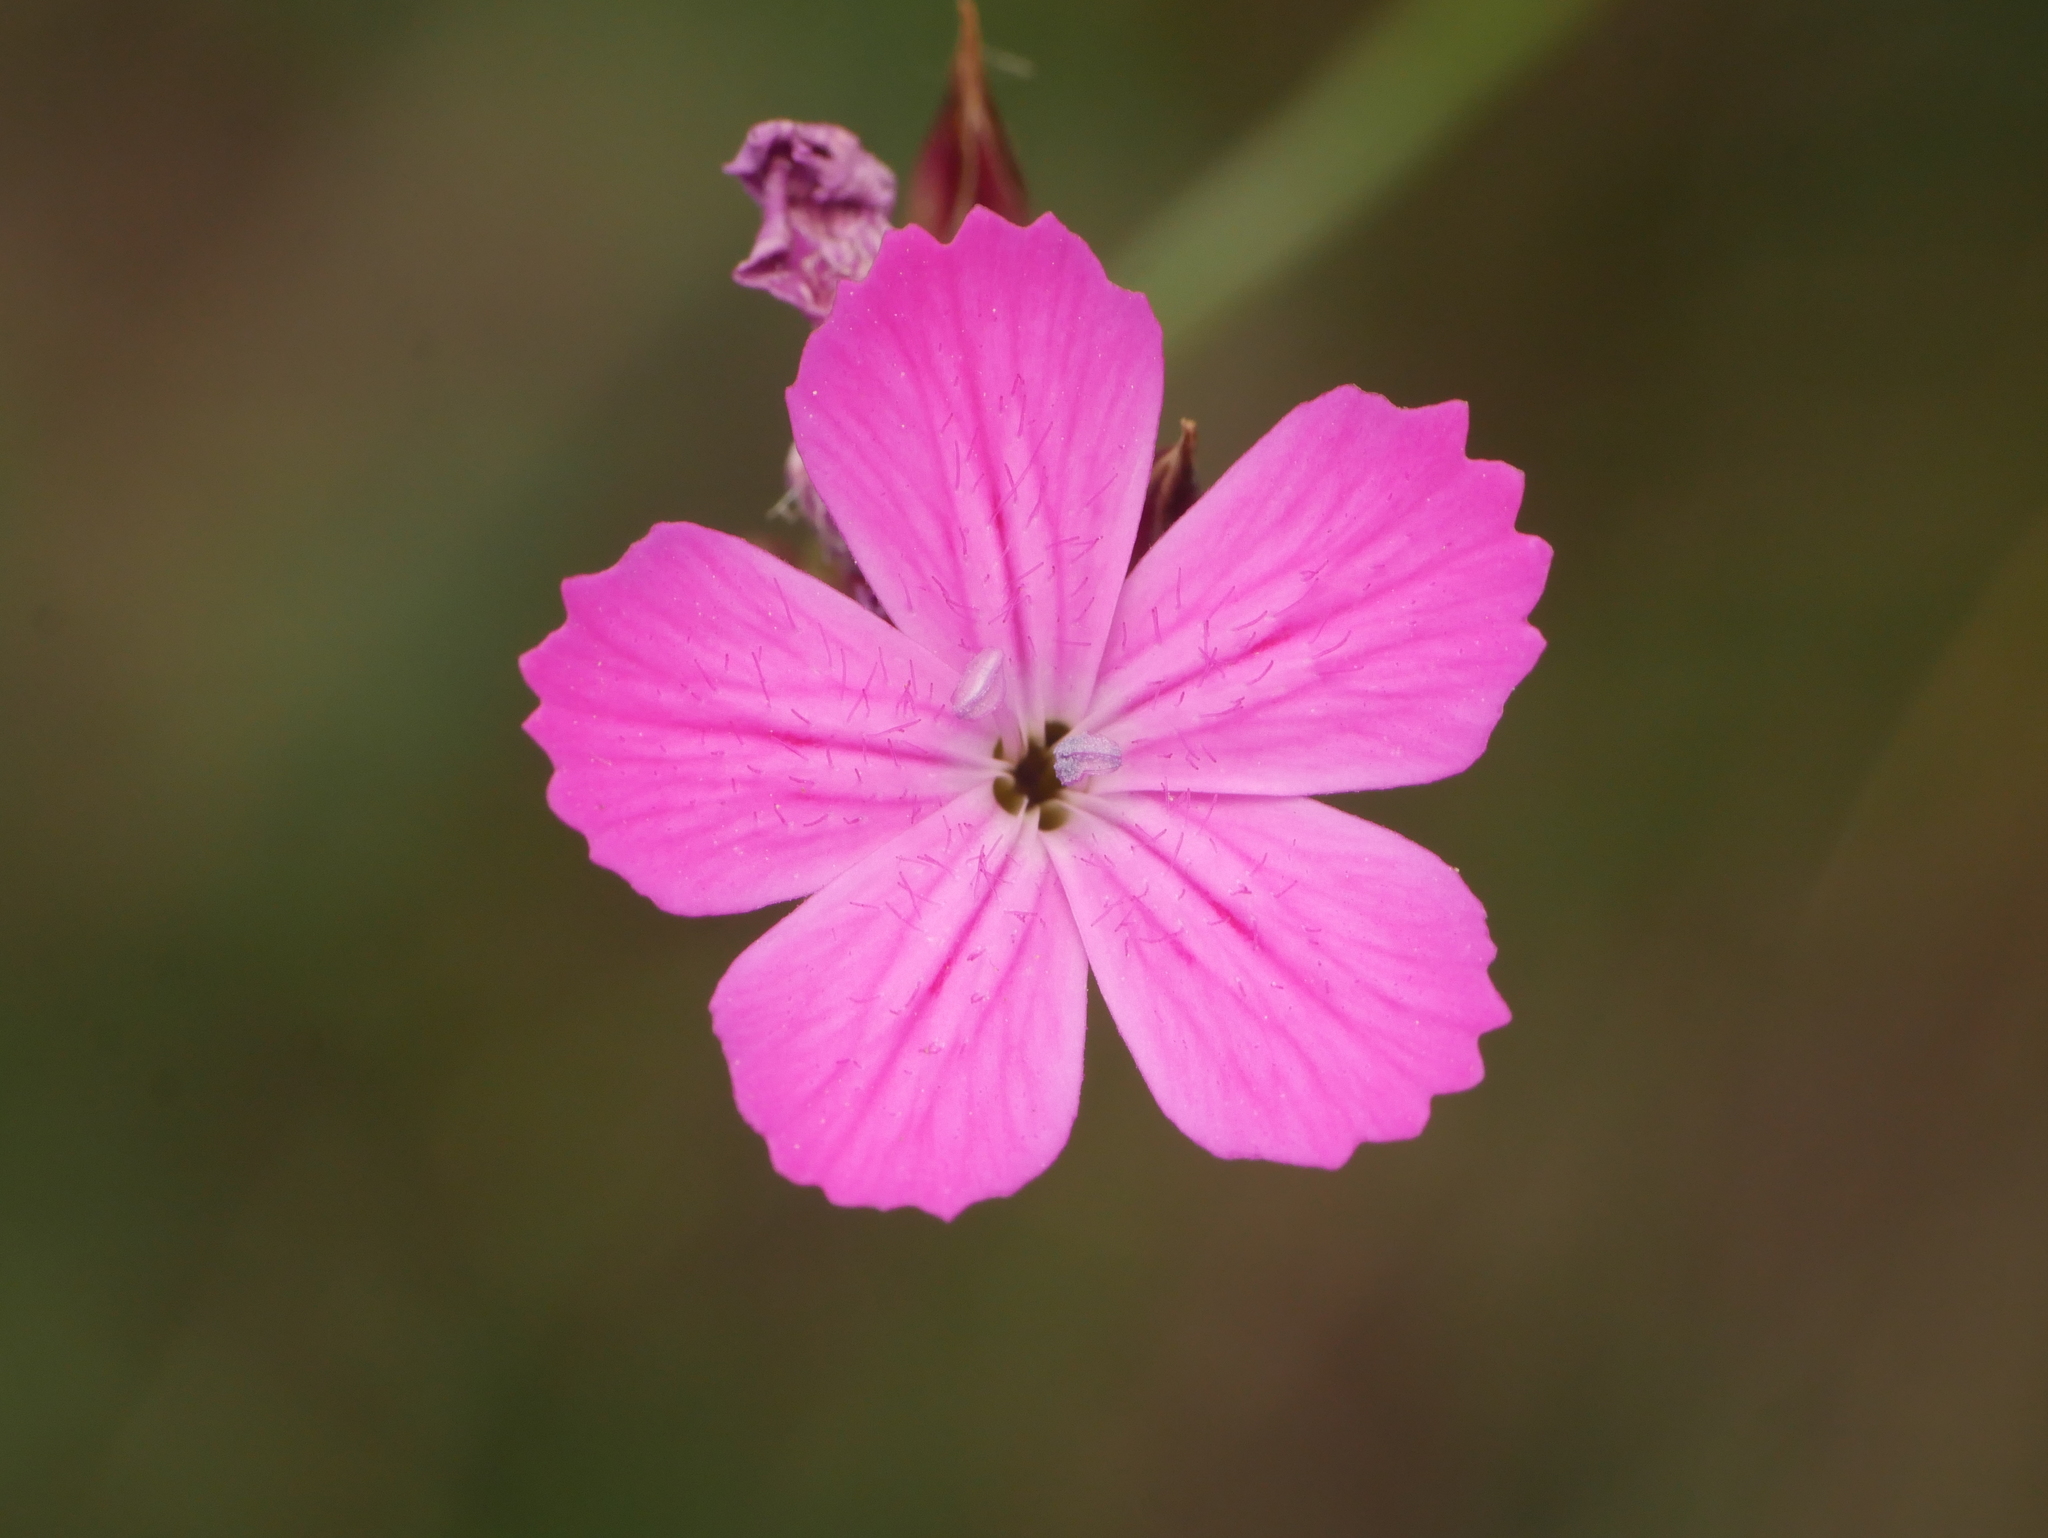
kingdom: Plantae
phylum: Tracheophyta
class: Magnoliopsida
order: Caryophyllales
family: Caryophyllaceae
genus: Dianthus
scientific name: Dianthus carthusianorum
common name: Carthusian pink
